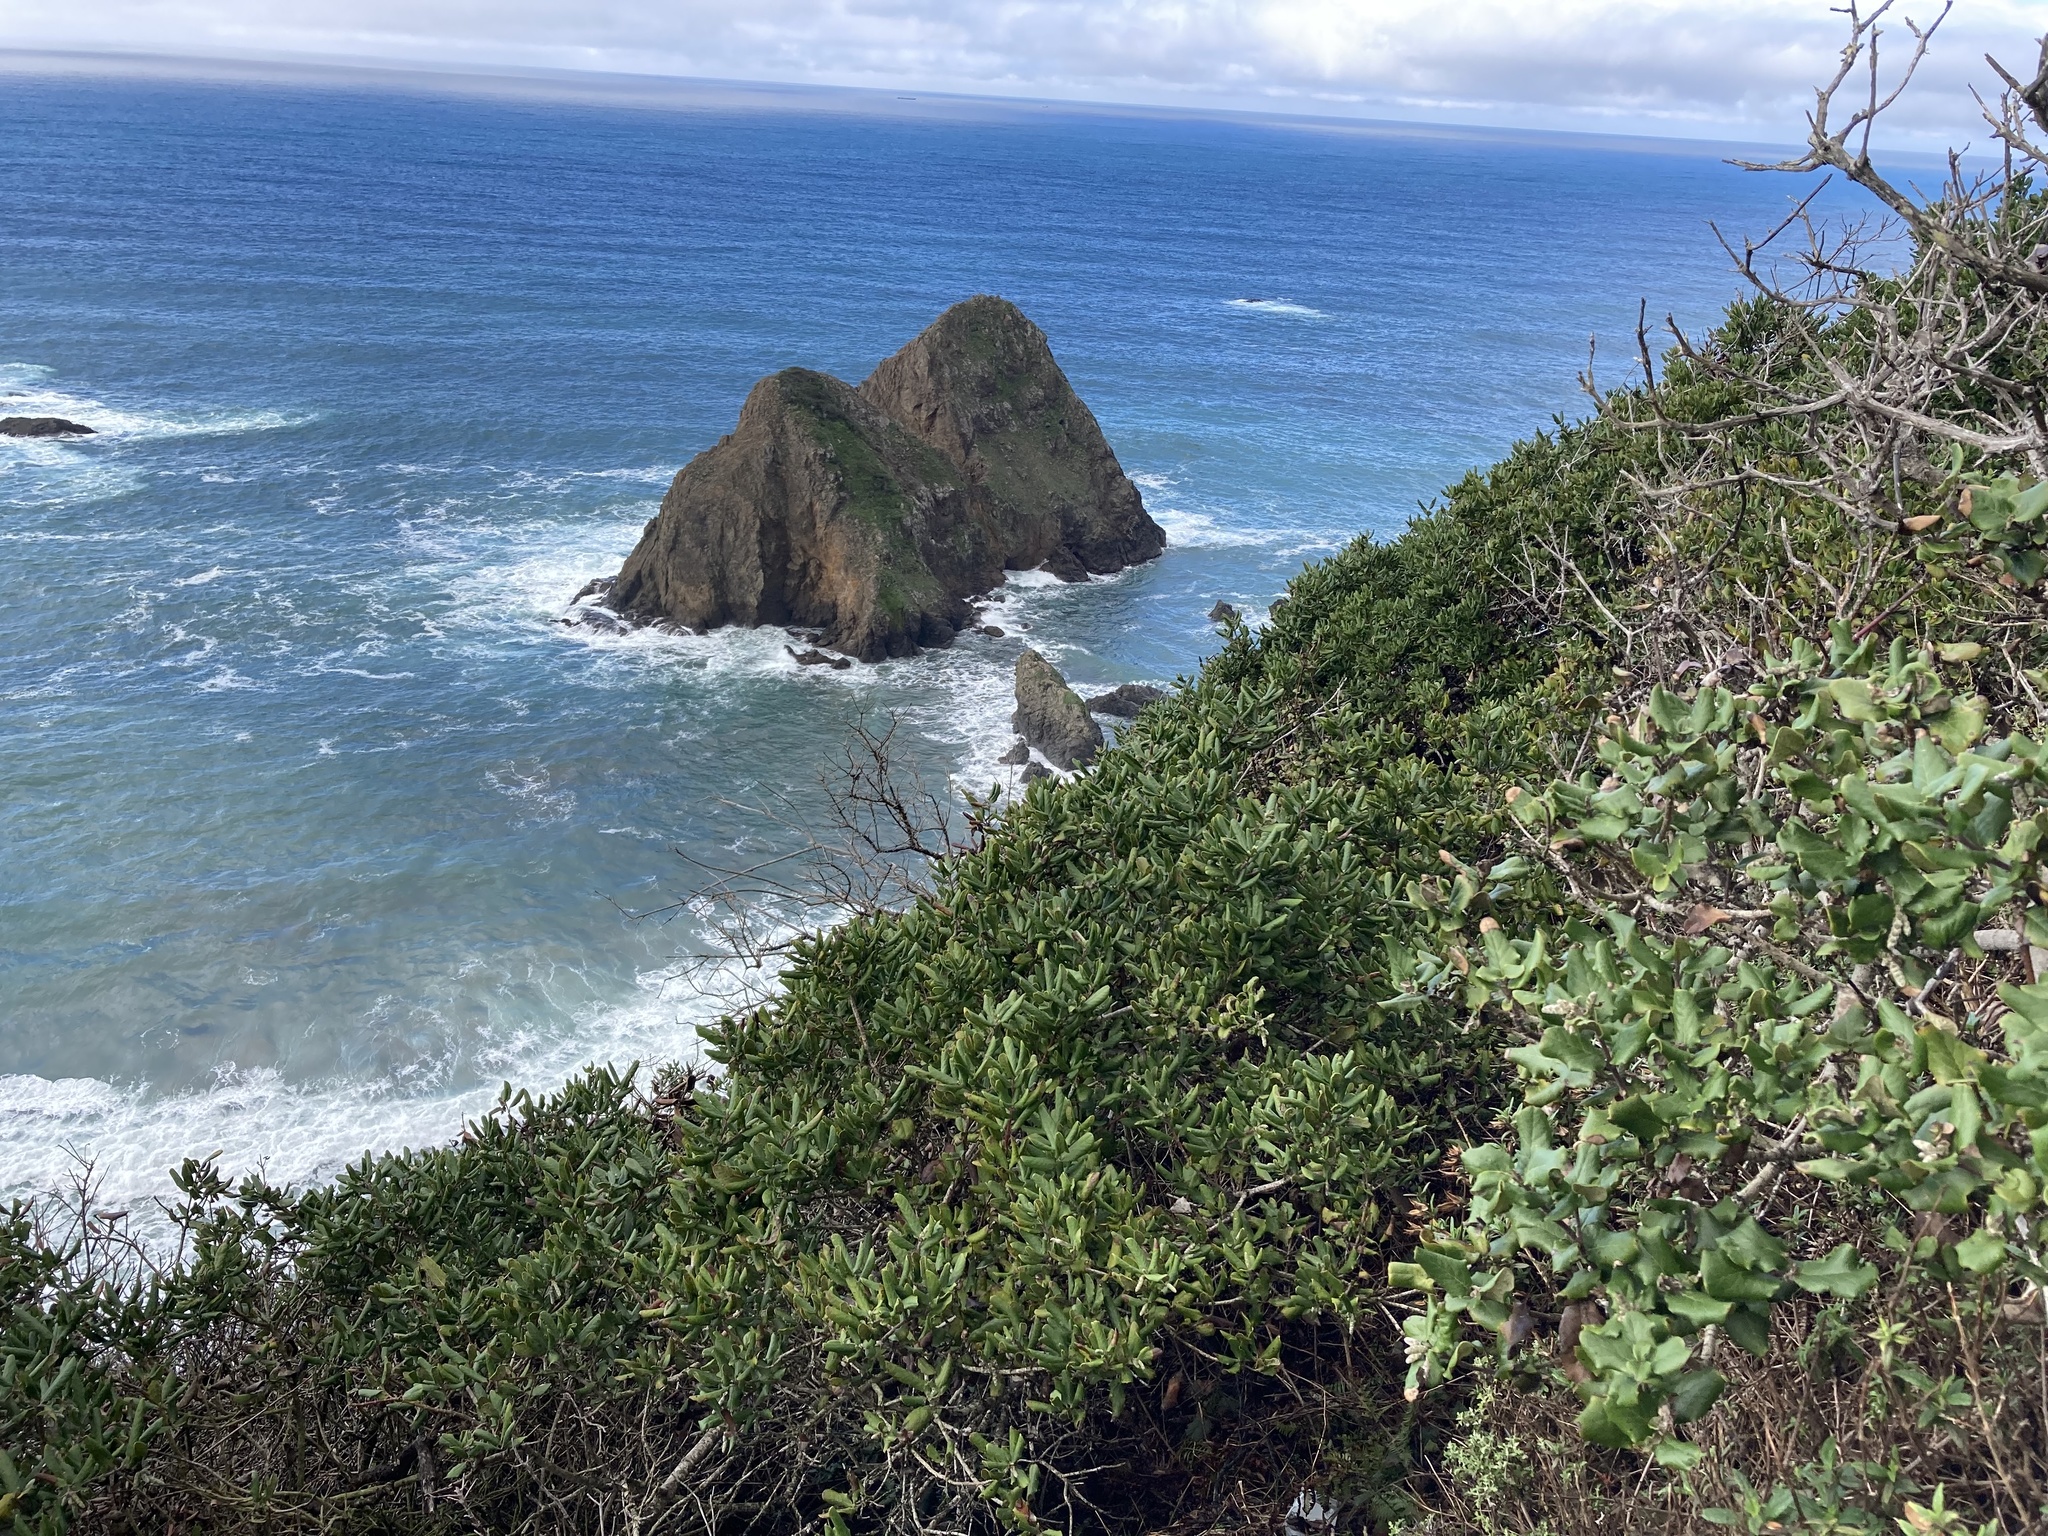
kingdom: Plantae
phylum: Tracheophyta
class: Magnoliopsida
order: Garryales
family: Garryaceae
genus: Garrya
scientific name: Garrya elliptica
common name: Silk-tassel
